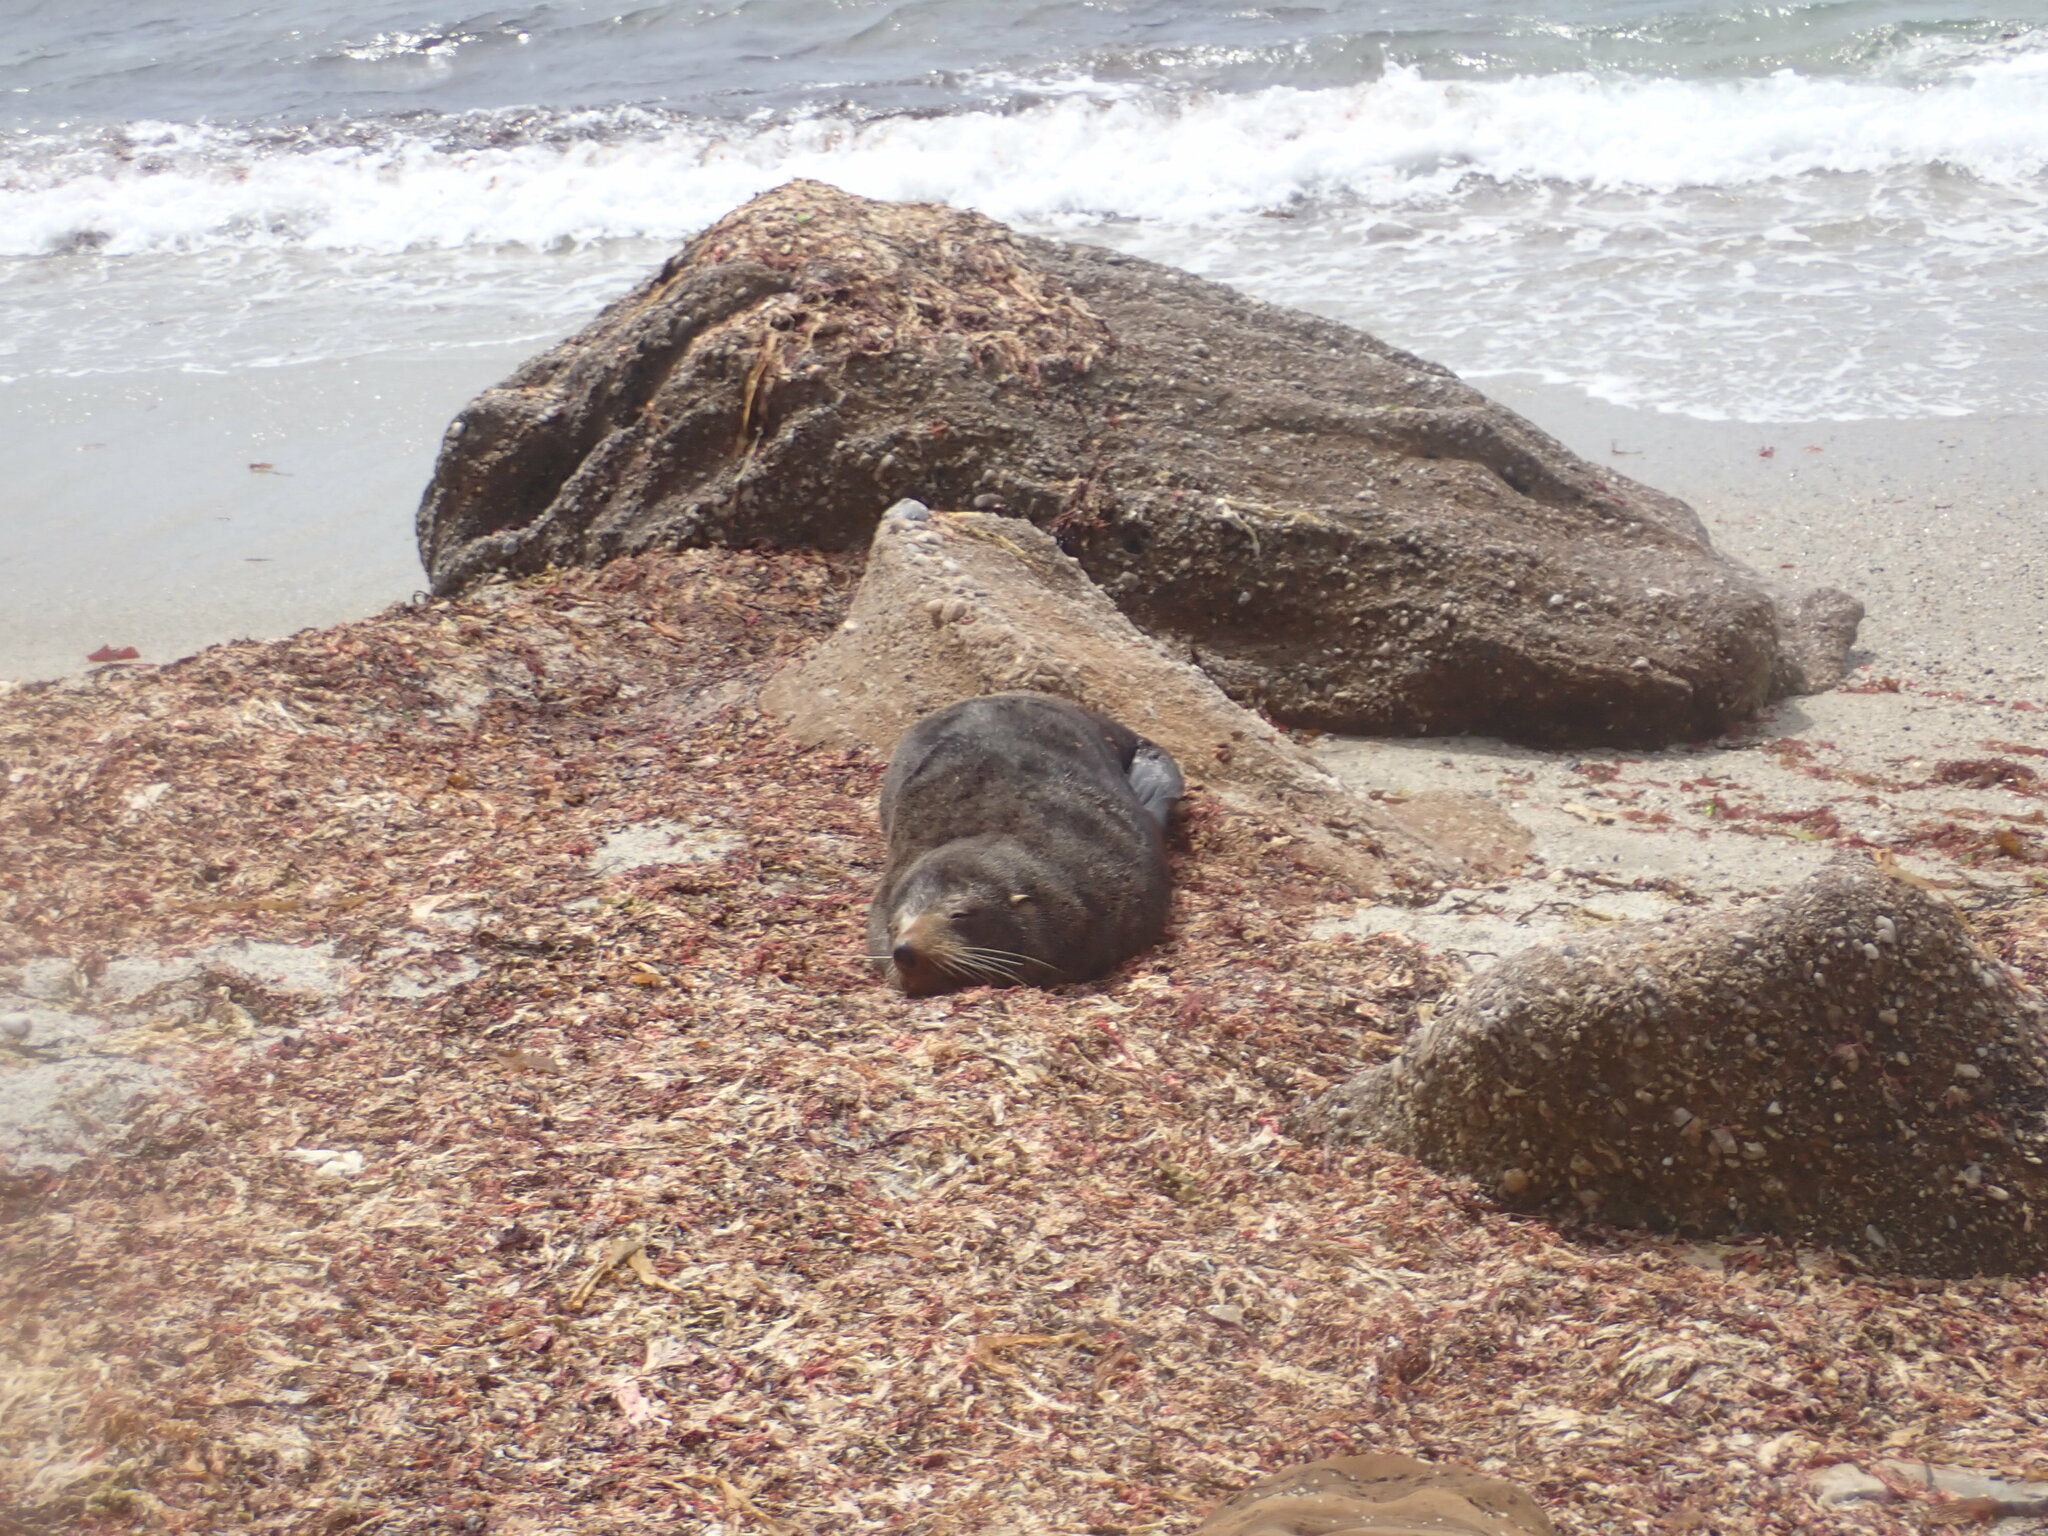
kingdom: Animalia
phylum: Chordata
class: Mammalia
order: Carnivora
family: Otariidae
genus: Arctocephalus
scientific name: Arctocephalus forsteri
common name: New zealand fur seal
